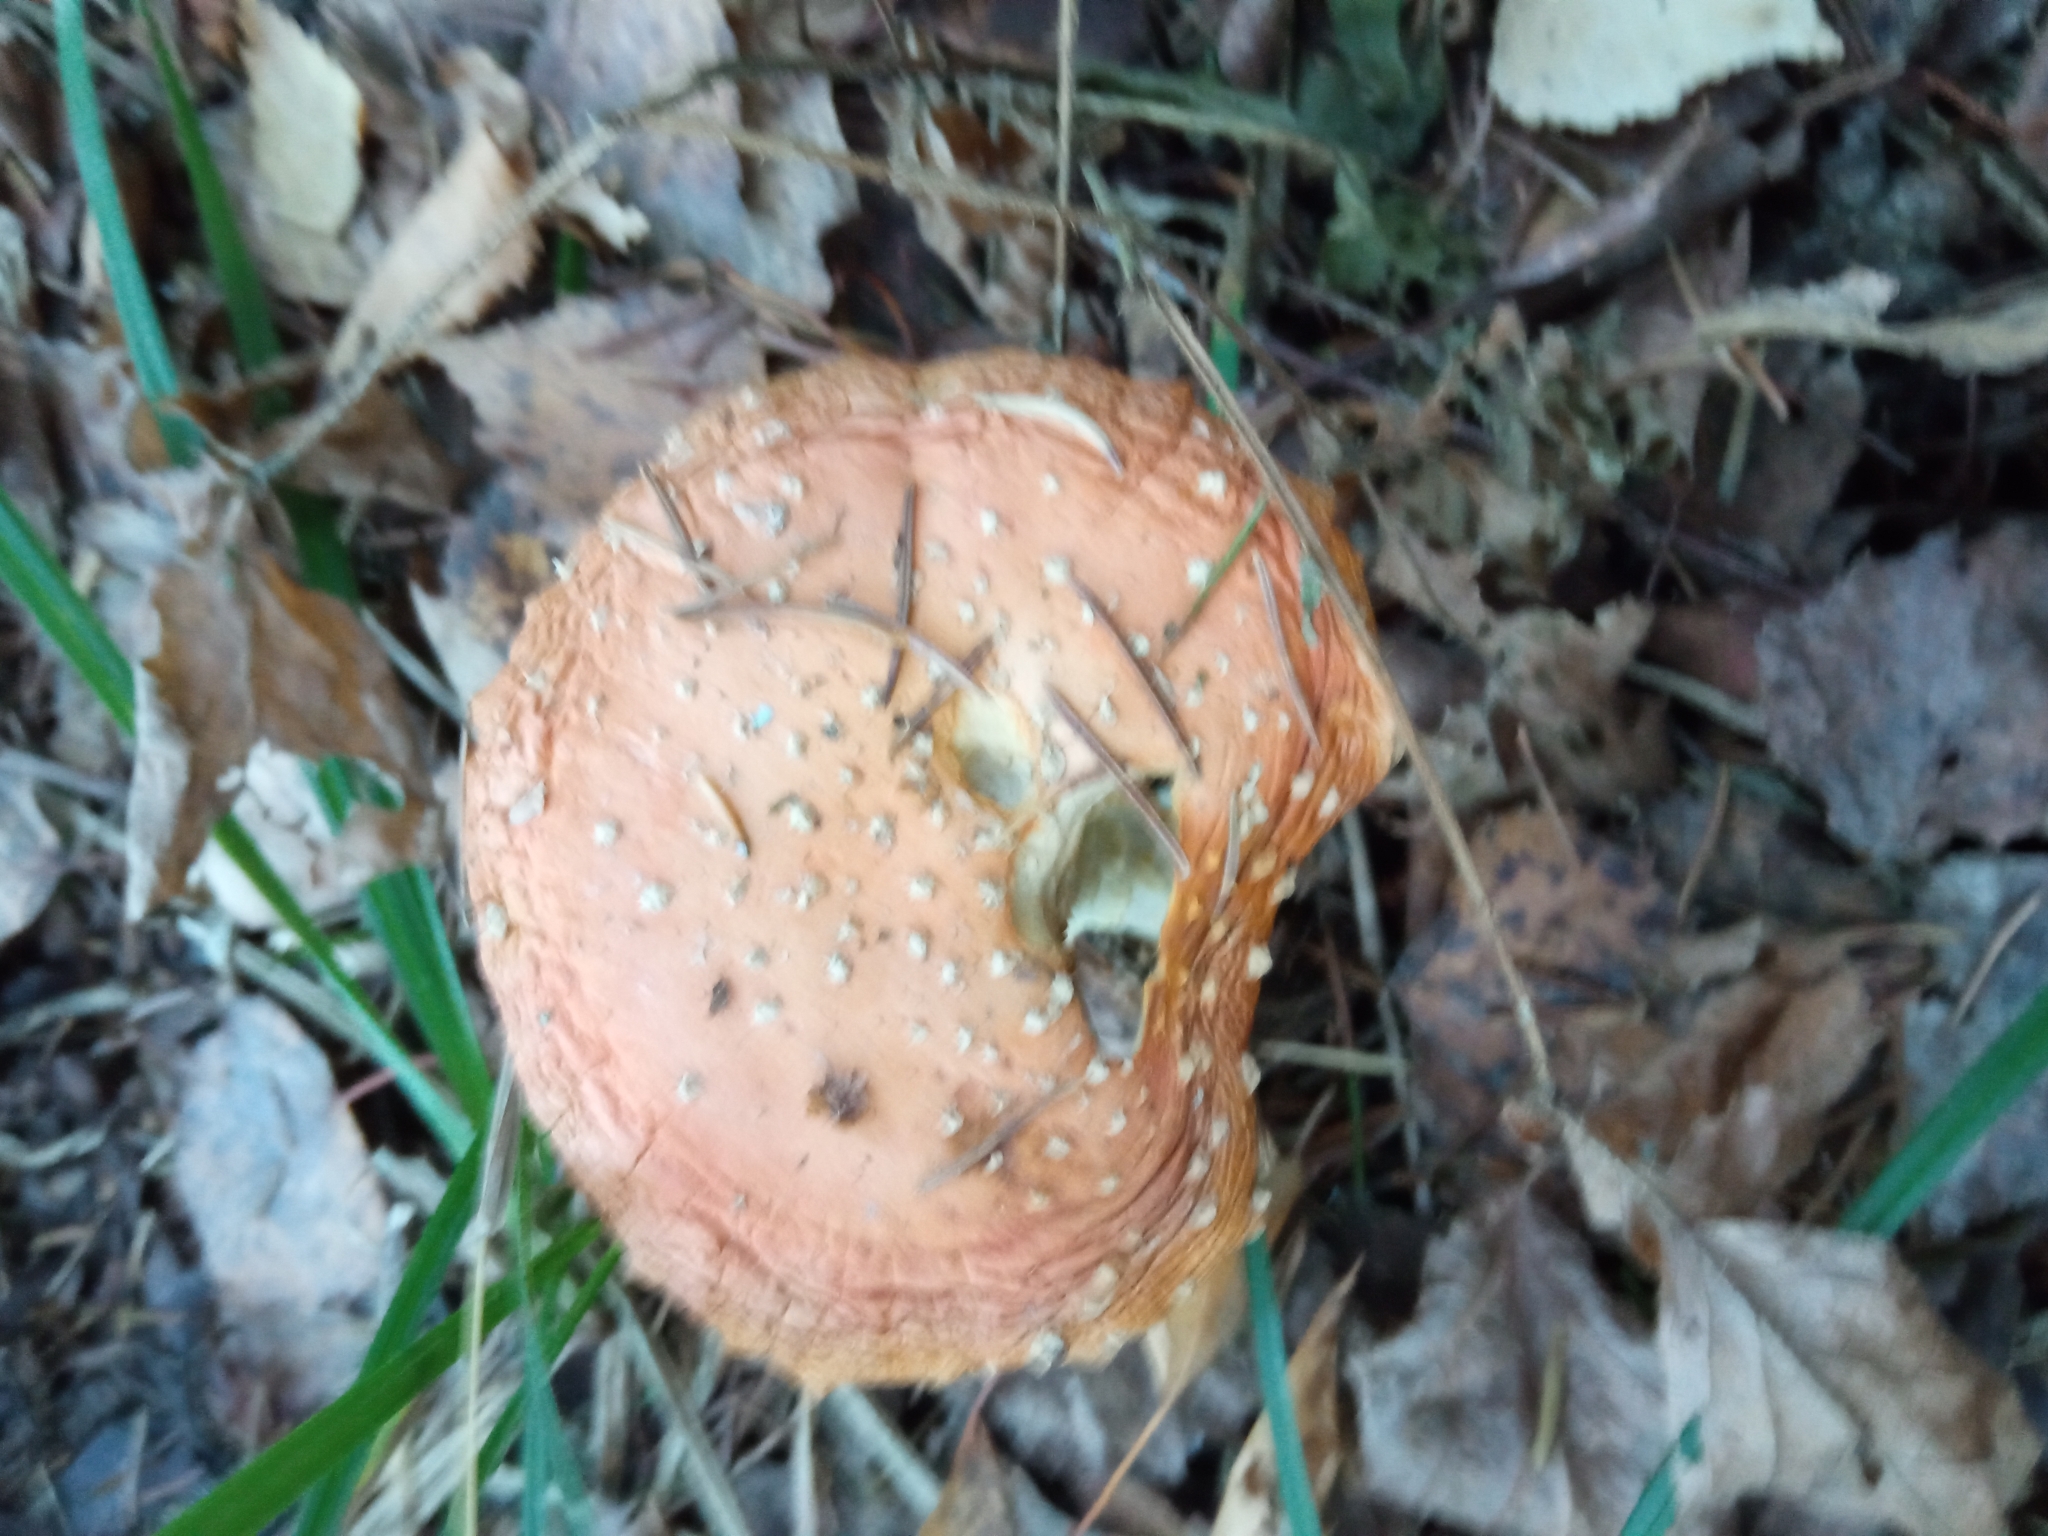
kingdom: Fungi
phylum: Basidiomycota
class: Agaricomycetes
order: Agaricales
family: Amanitaceae
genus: Amanita
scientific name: Amanita muscaria
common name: Fly agaric
